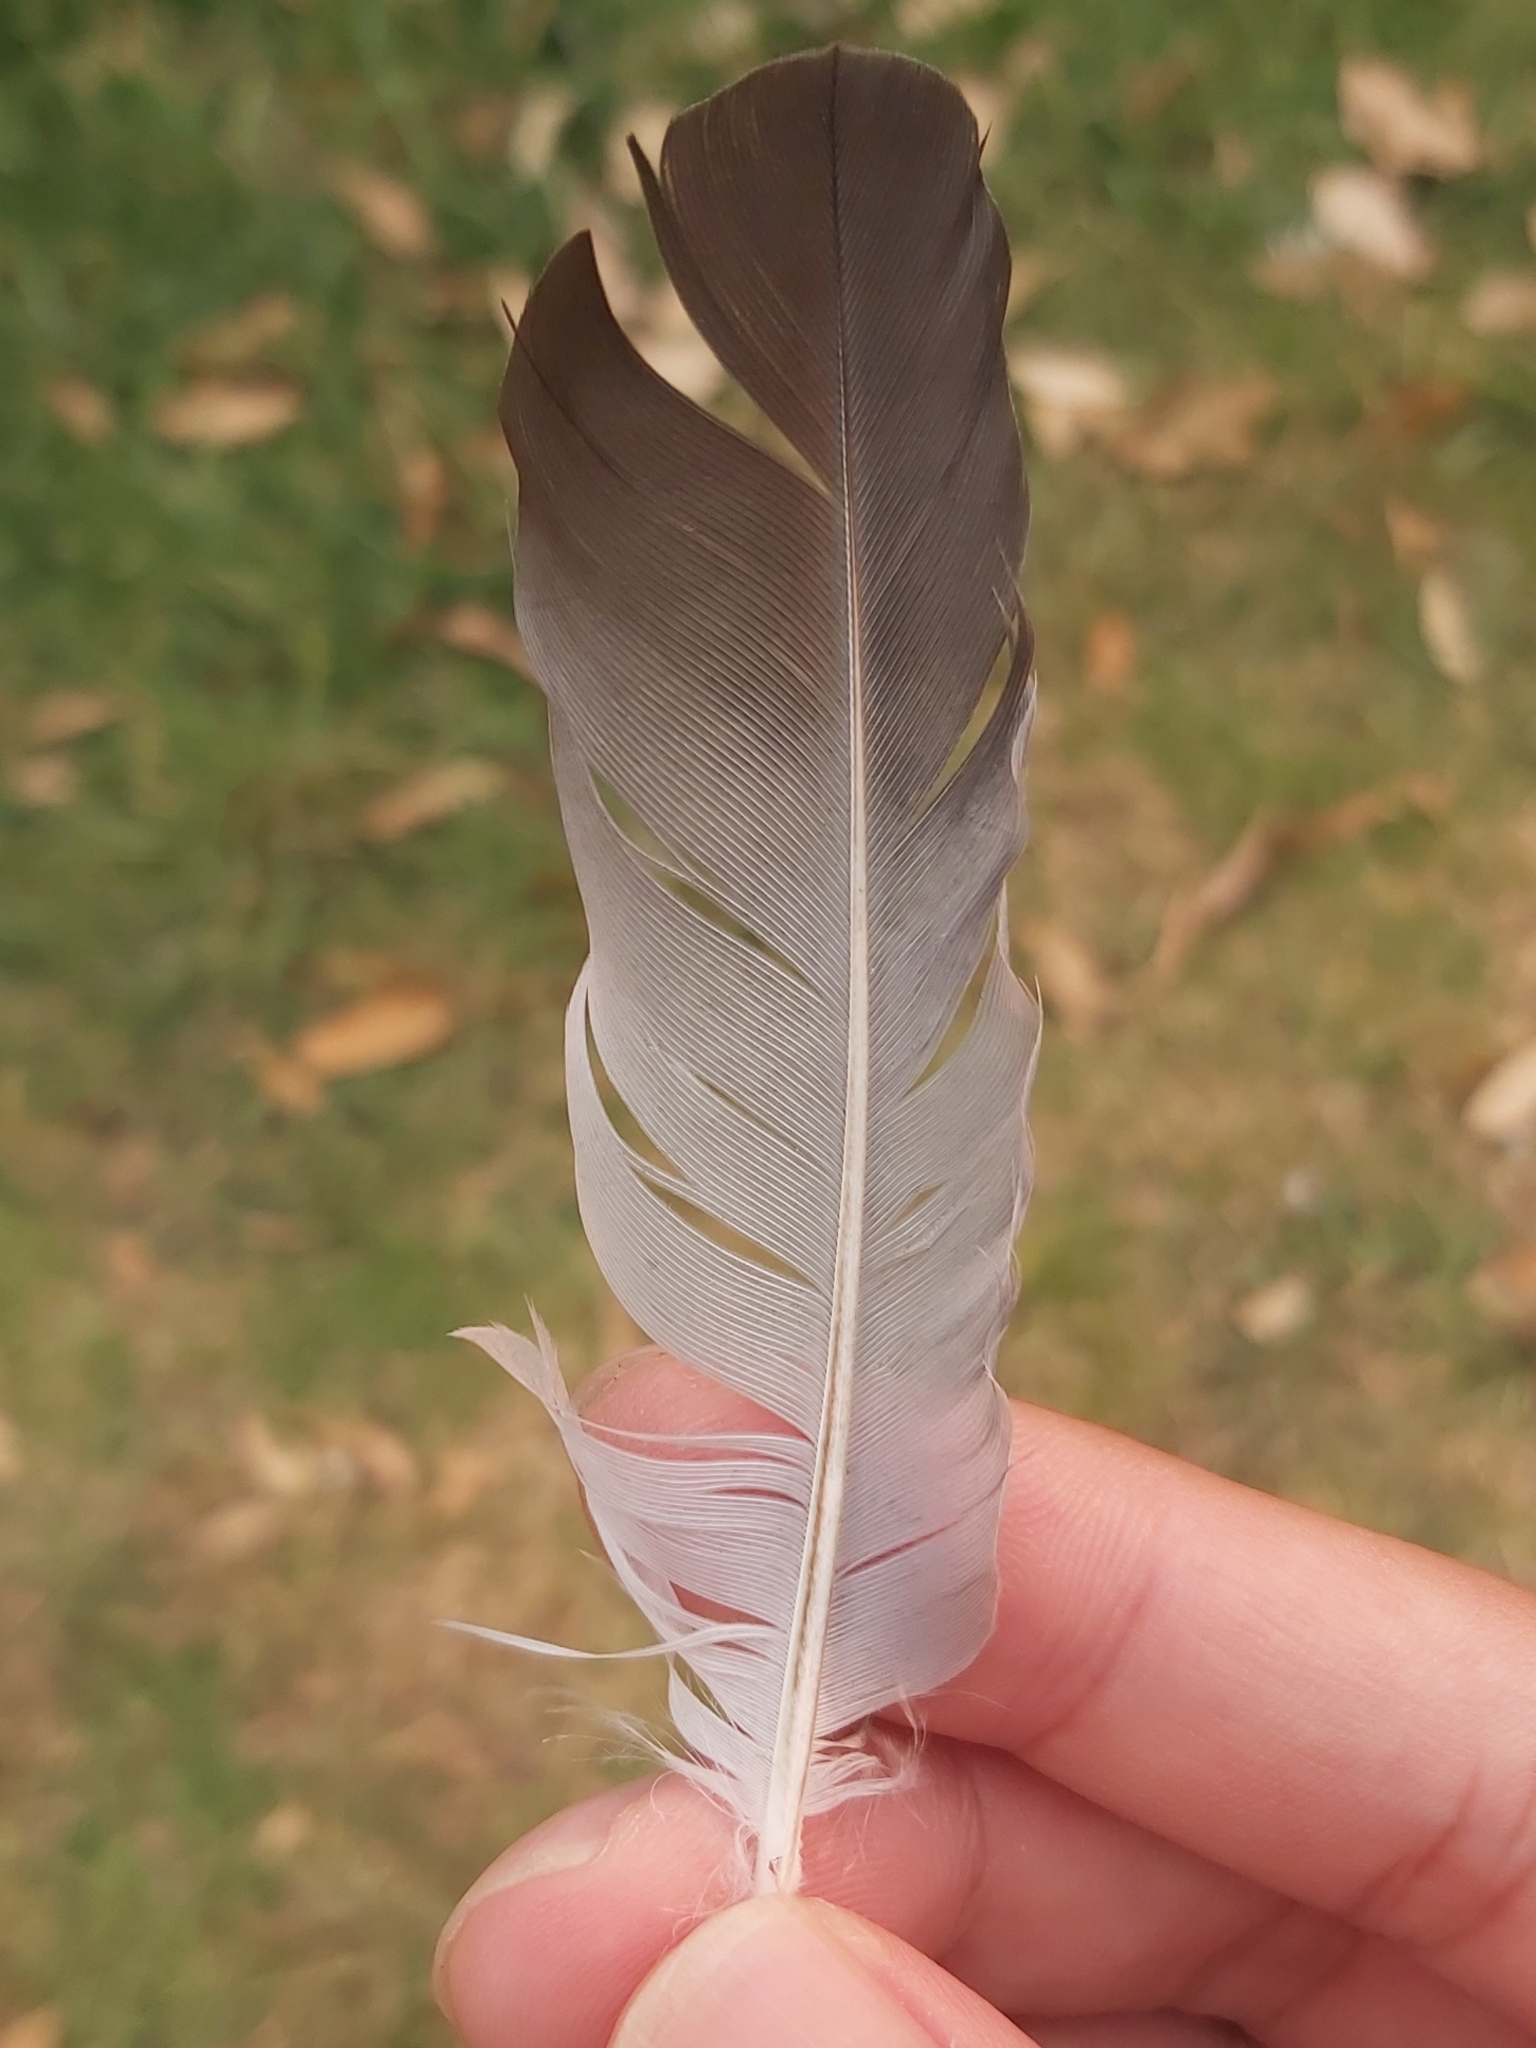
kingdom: Animalia
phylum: Chordata
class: Aves
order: Columbiformes
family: Columbidae
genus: Columba
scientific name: Columba livia
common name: Rock pigeon
